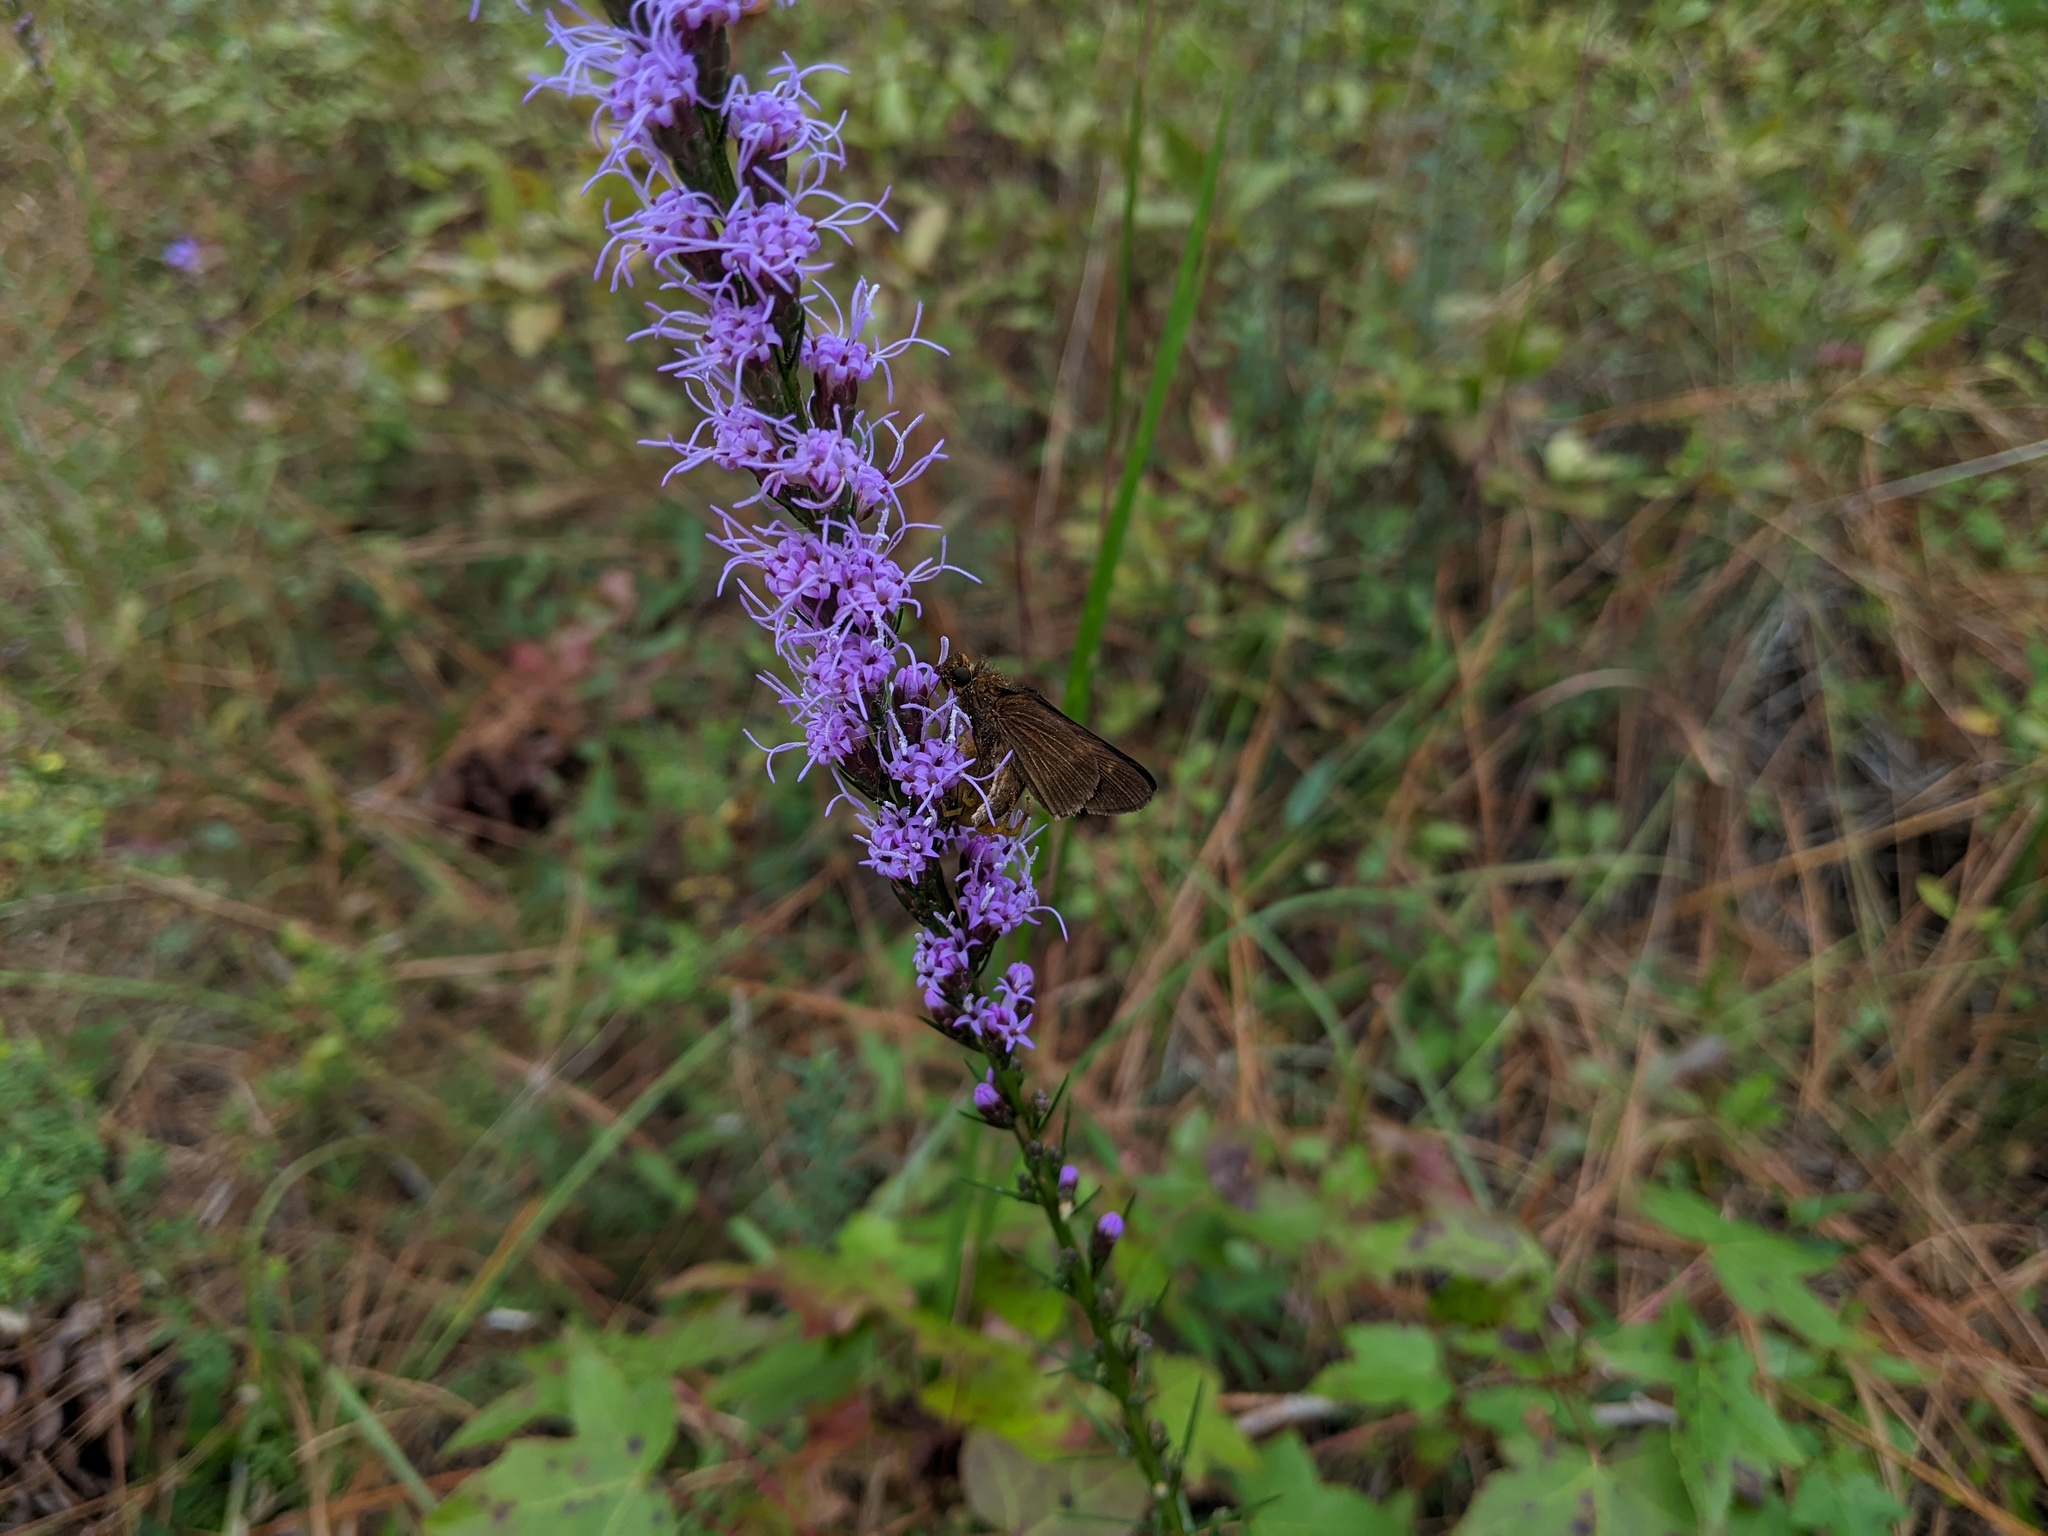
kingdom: Animalia
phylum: Arthropoda
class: Insecta
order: Lepidoptera
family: Hesperiidae
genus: Panoquina
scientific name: Panoquina ocola
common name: Ocola skipper
